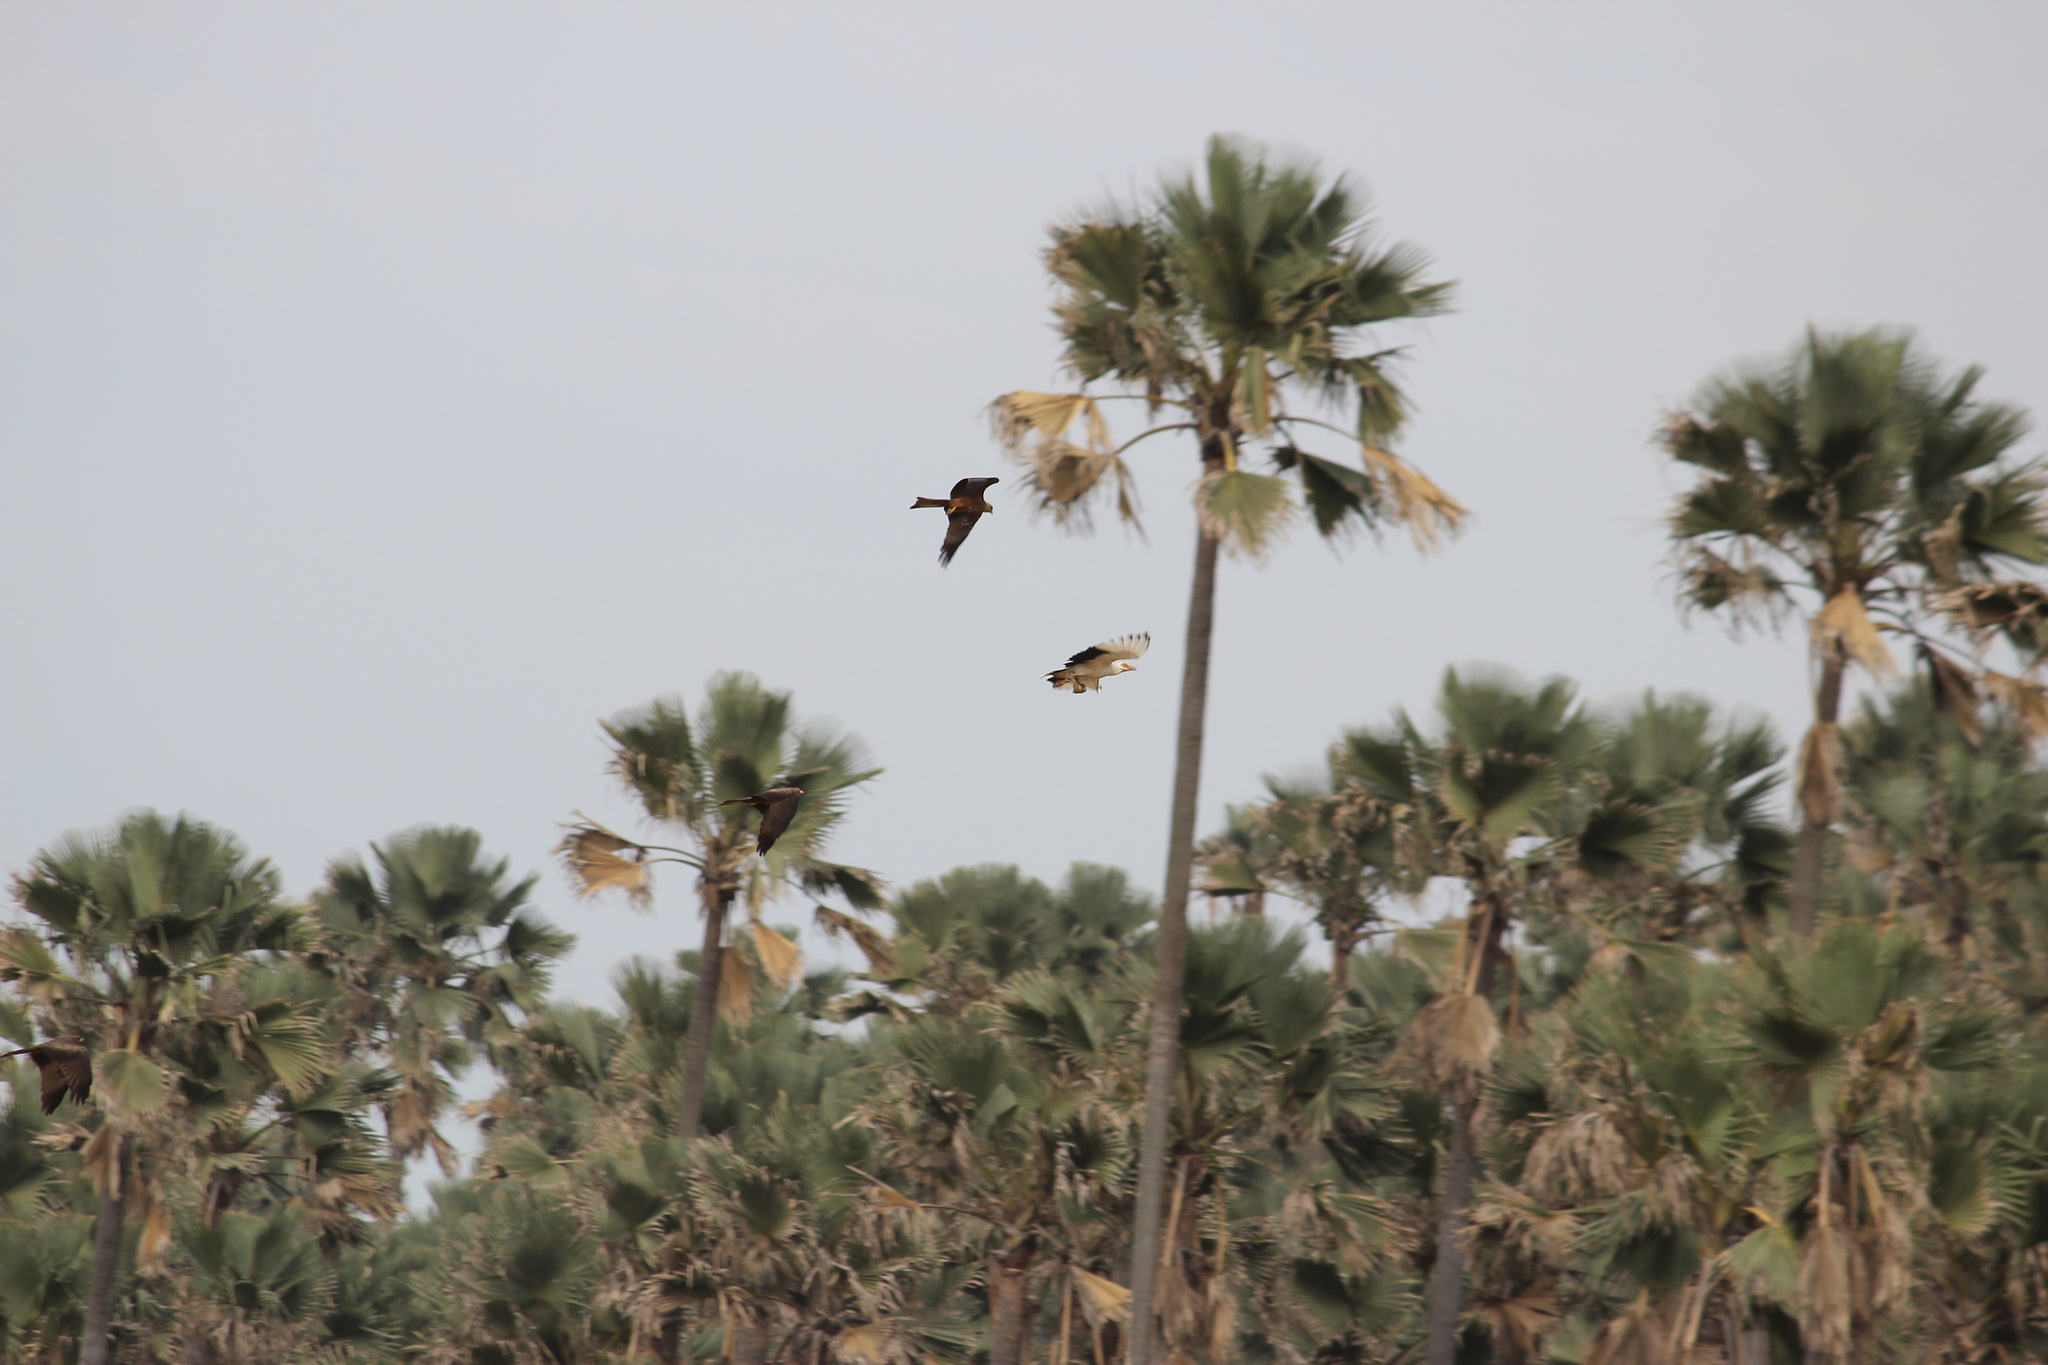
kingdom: Animalia
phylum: Chordata
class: Aves
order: Accipitriformes
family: Accipitridae
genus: Gypohierax
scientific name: Gypohierax angolensis
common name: Palm-nut vulture
